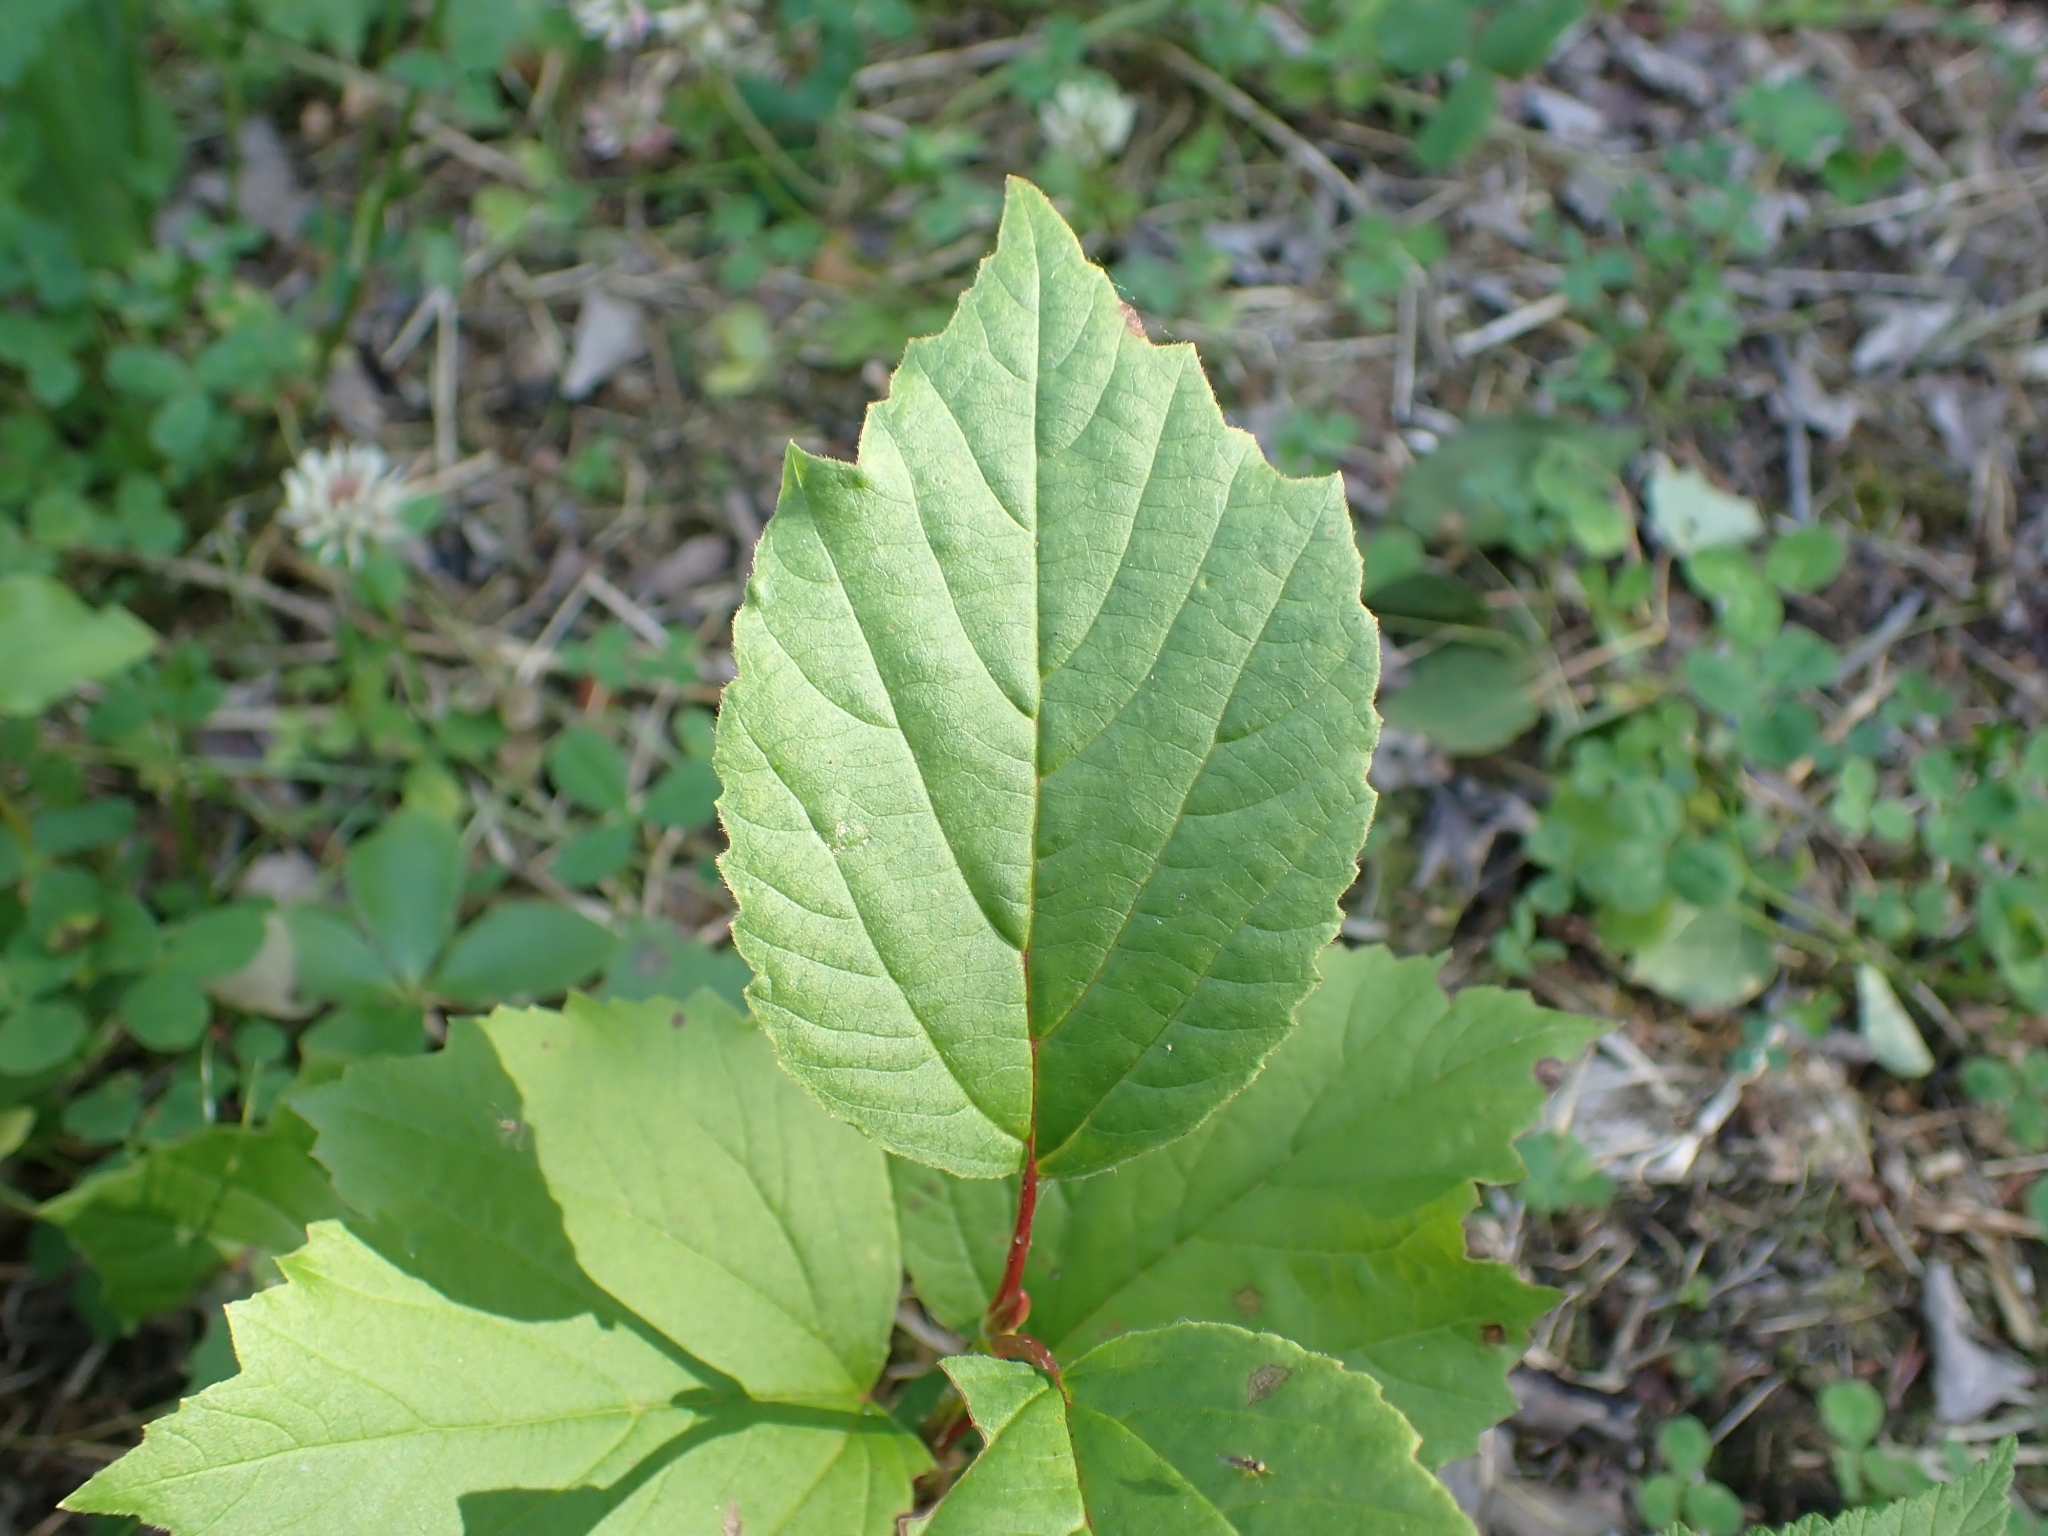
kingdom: Plantae
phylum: Tracheophyta
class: Magnoliopsida
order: Dipsacales
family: Viburnaceae
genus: Viburnum
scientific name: Viburnum edule
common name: Mooseberry
